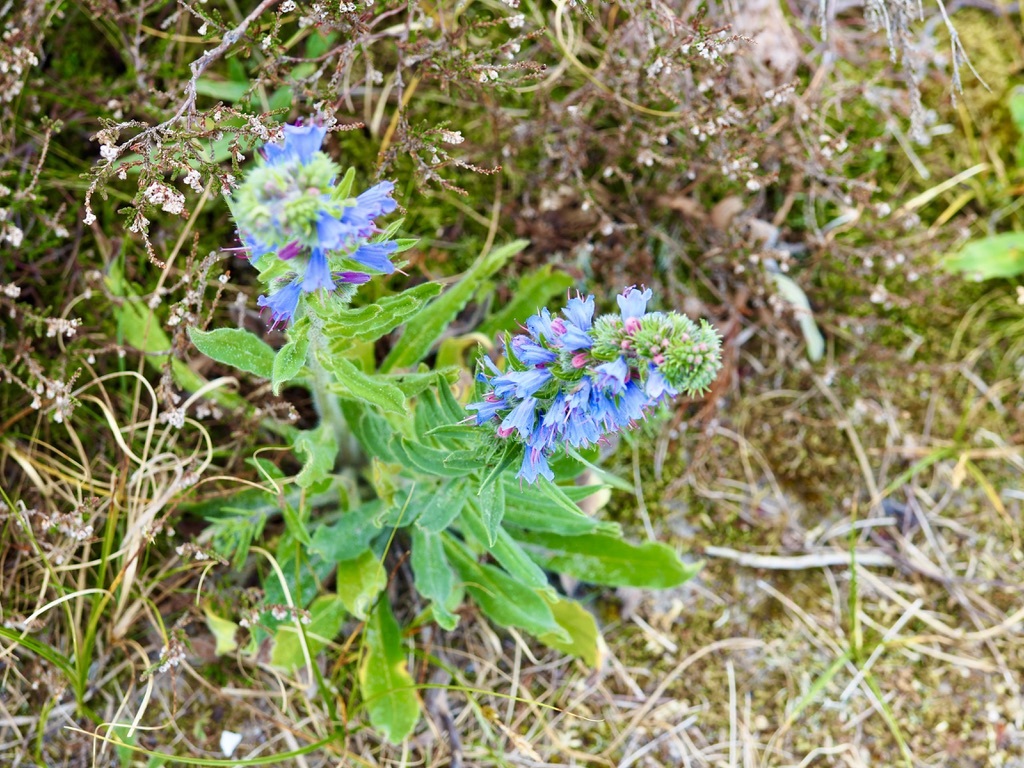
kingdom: Plantae
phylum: Tracheophyta
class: Magnoliopsida
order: Boraginales
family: Boraginaceae
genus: Echium
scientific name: Echium vulgare
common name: Common viper's bugloss
